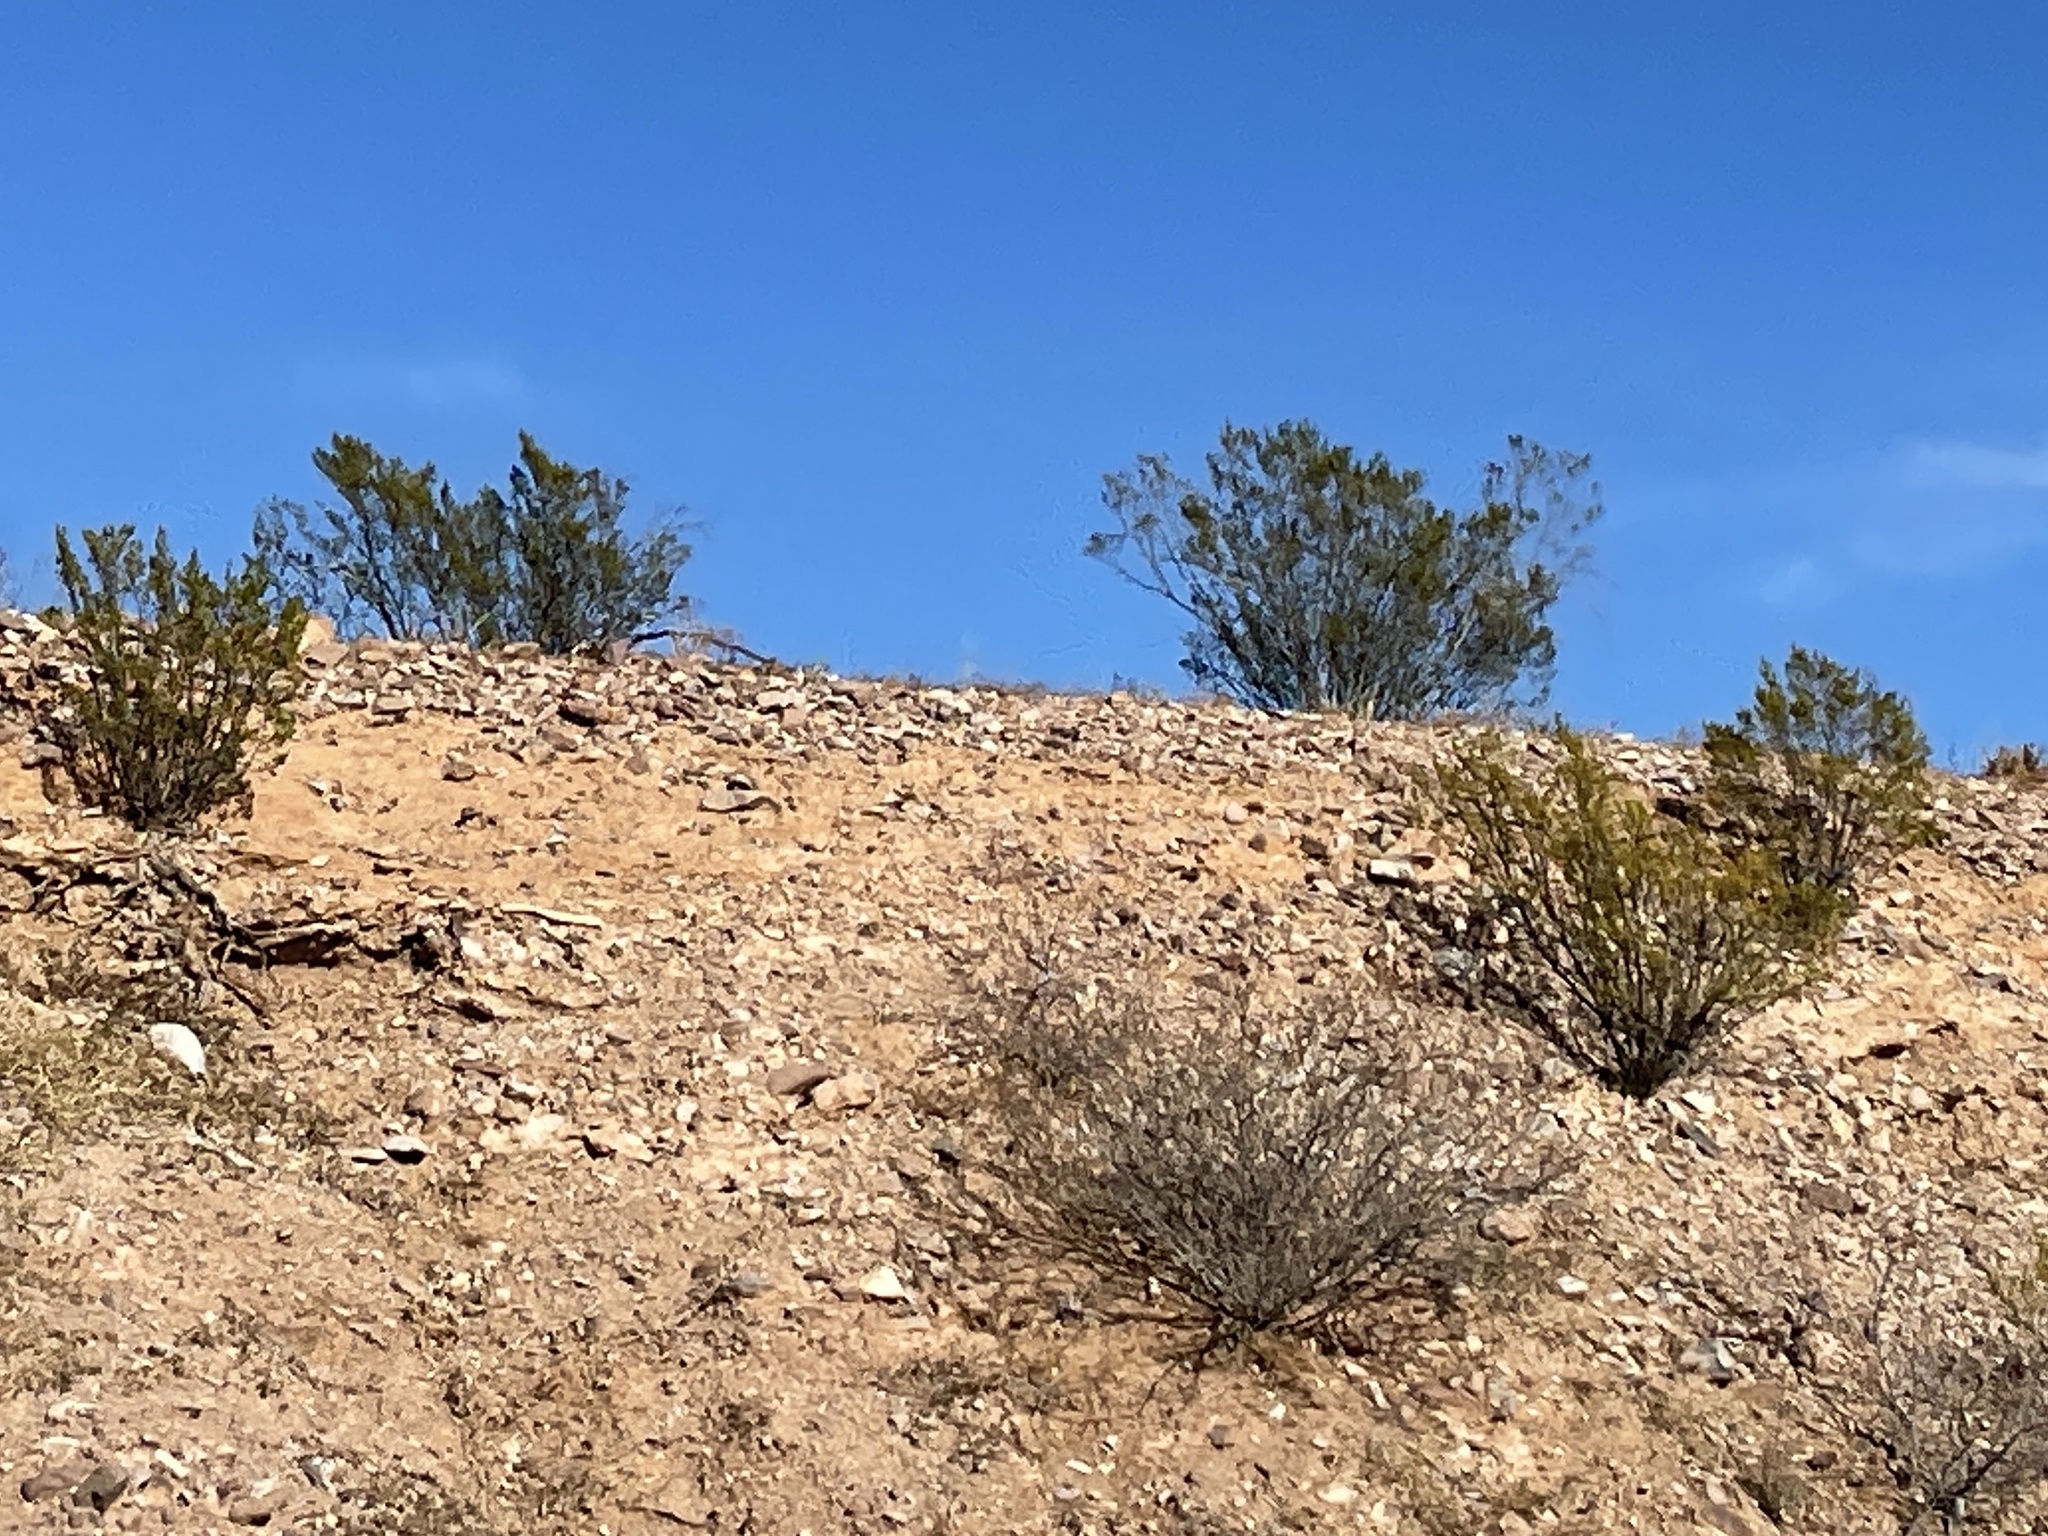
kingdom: Plantae
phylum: Tracheophyta
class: Magnoliopsida
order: Zygophyllales
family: Zygophyllaceae
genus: Larrea
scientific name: Larrea tridentata
